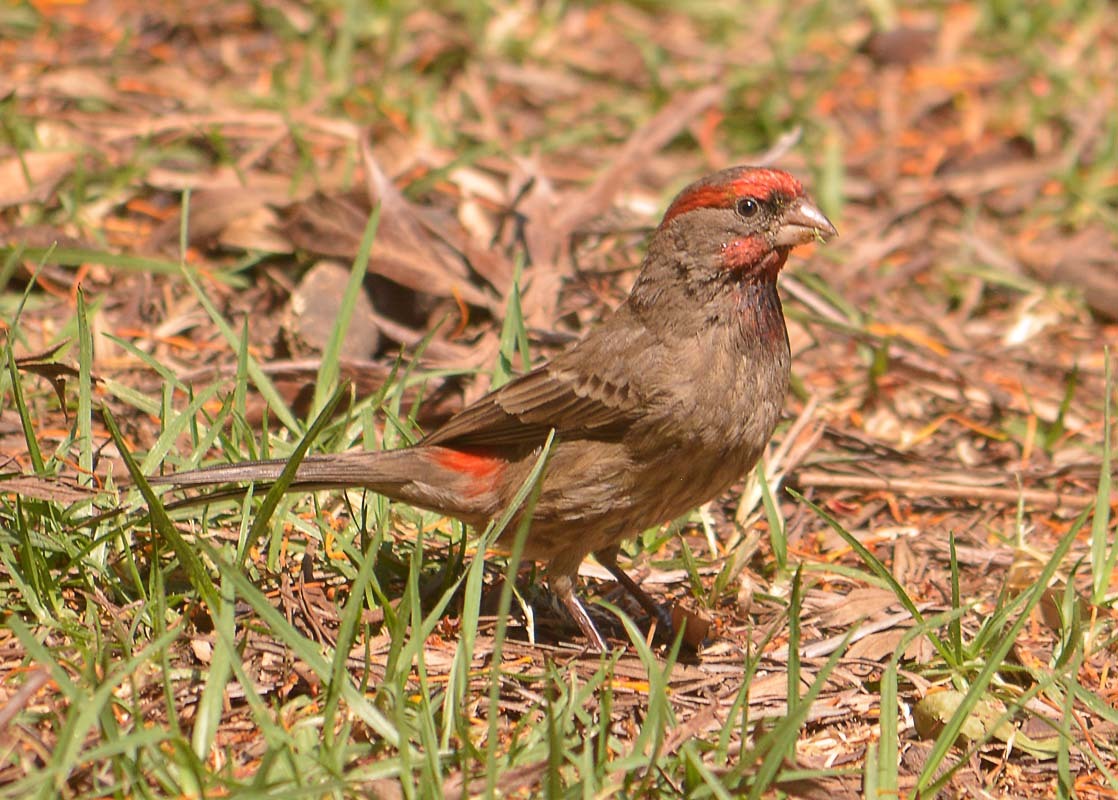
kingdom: Animalia
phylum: Chordata
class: Aves
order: Passeriformes
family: Fringillidae
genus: Haemorhous
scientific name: Haemorhous mexicanus
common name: House finch
